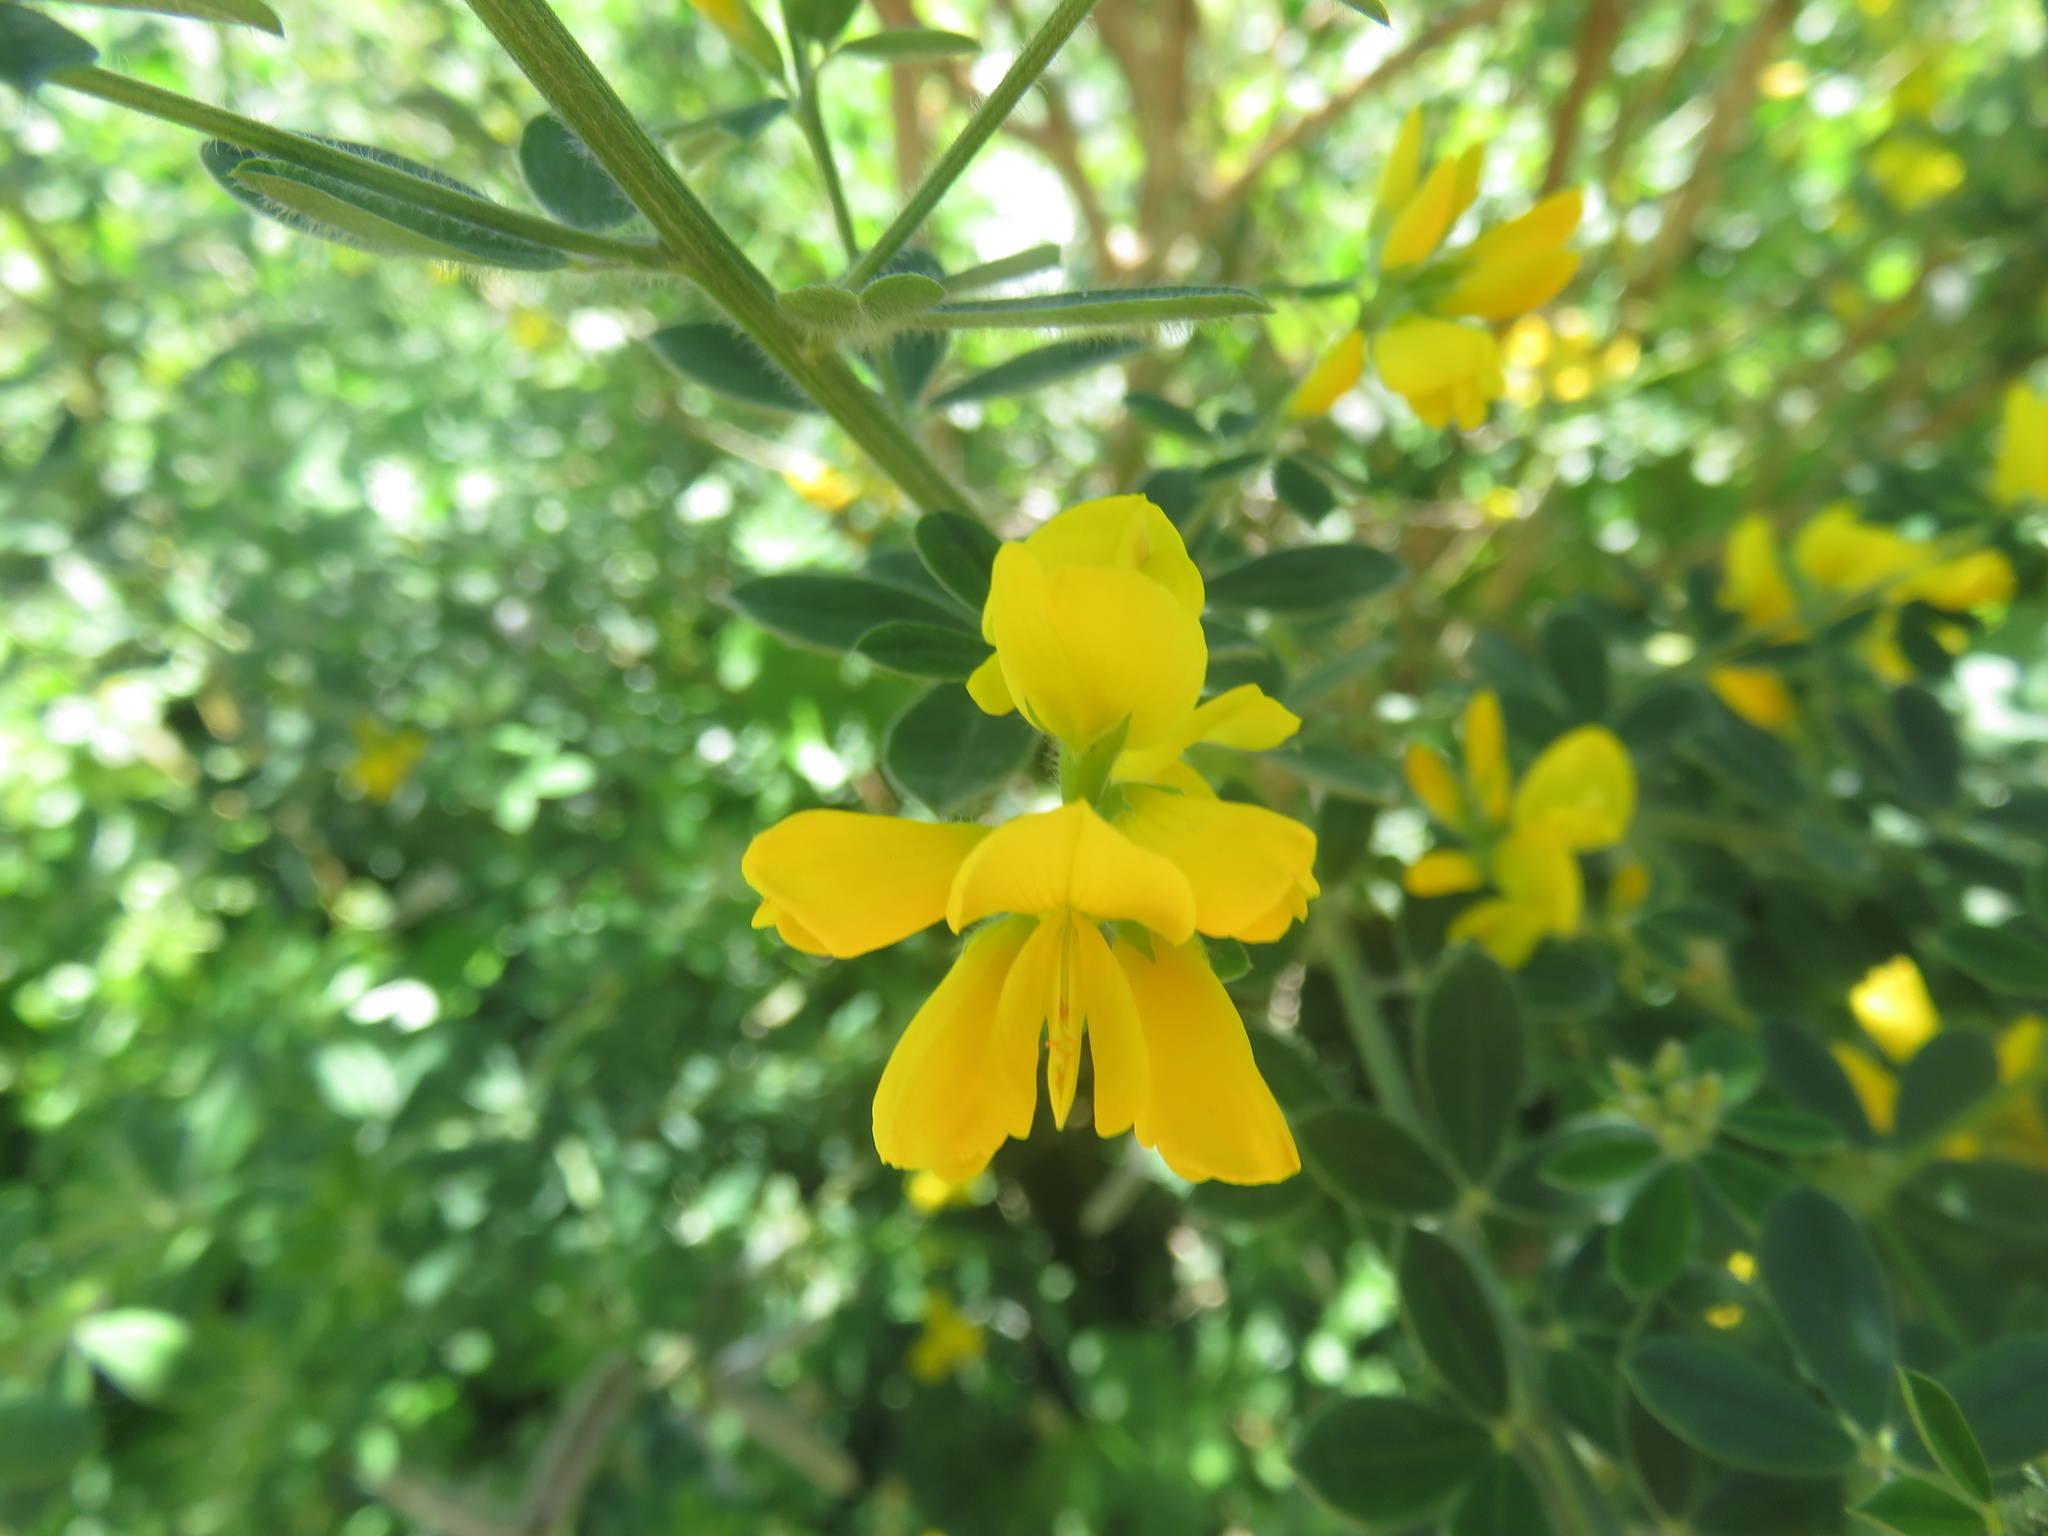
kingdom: Plantae
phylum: Tracheophyta
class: Magnoliopsida
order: Fabales
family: Fabaceae
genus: Genista
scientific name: Genista monspessulana
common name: Montpellier broom
